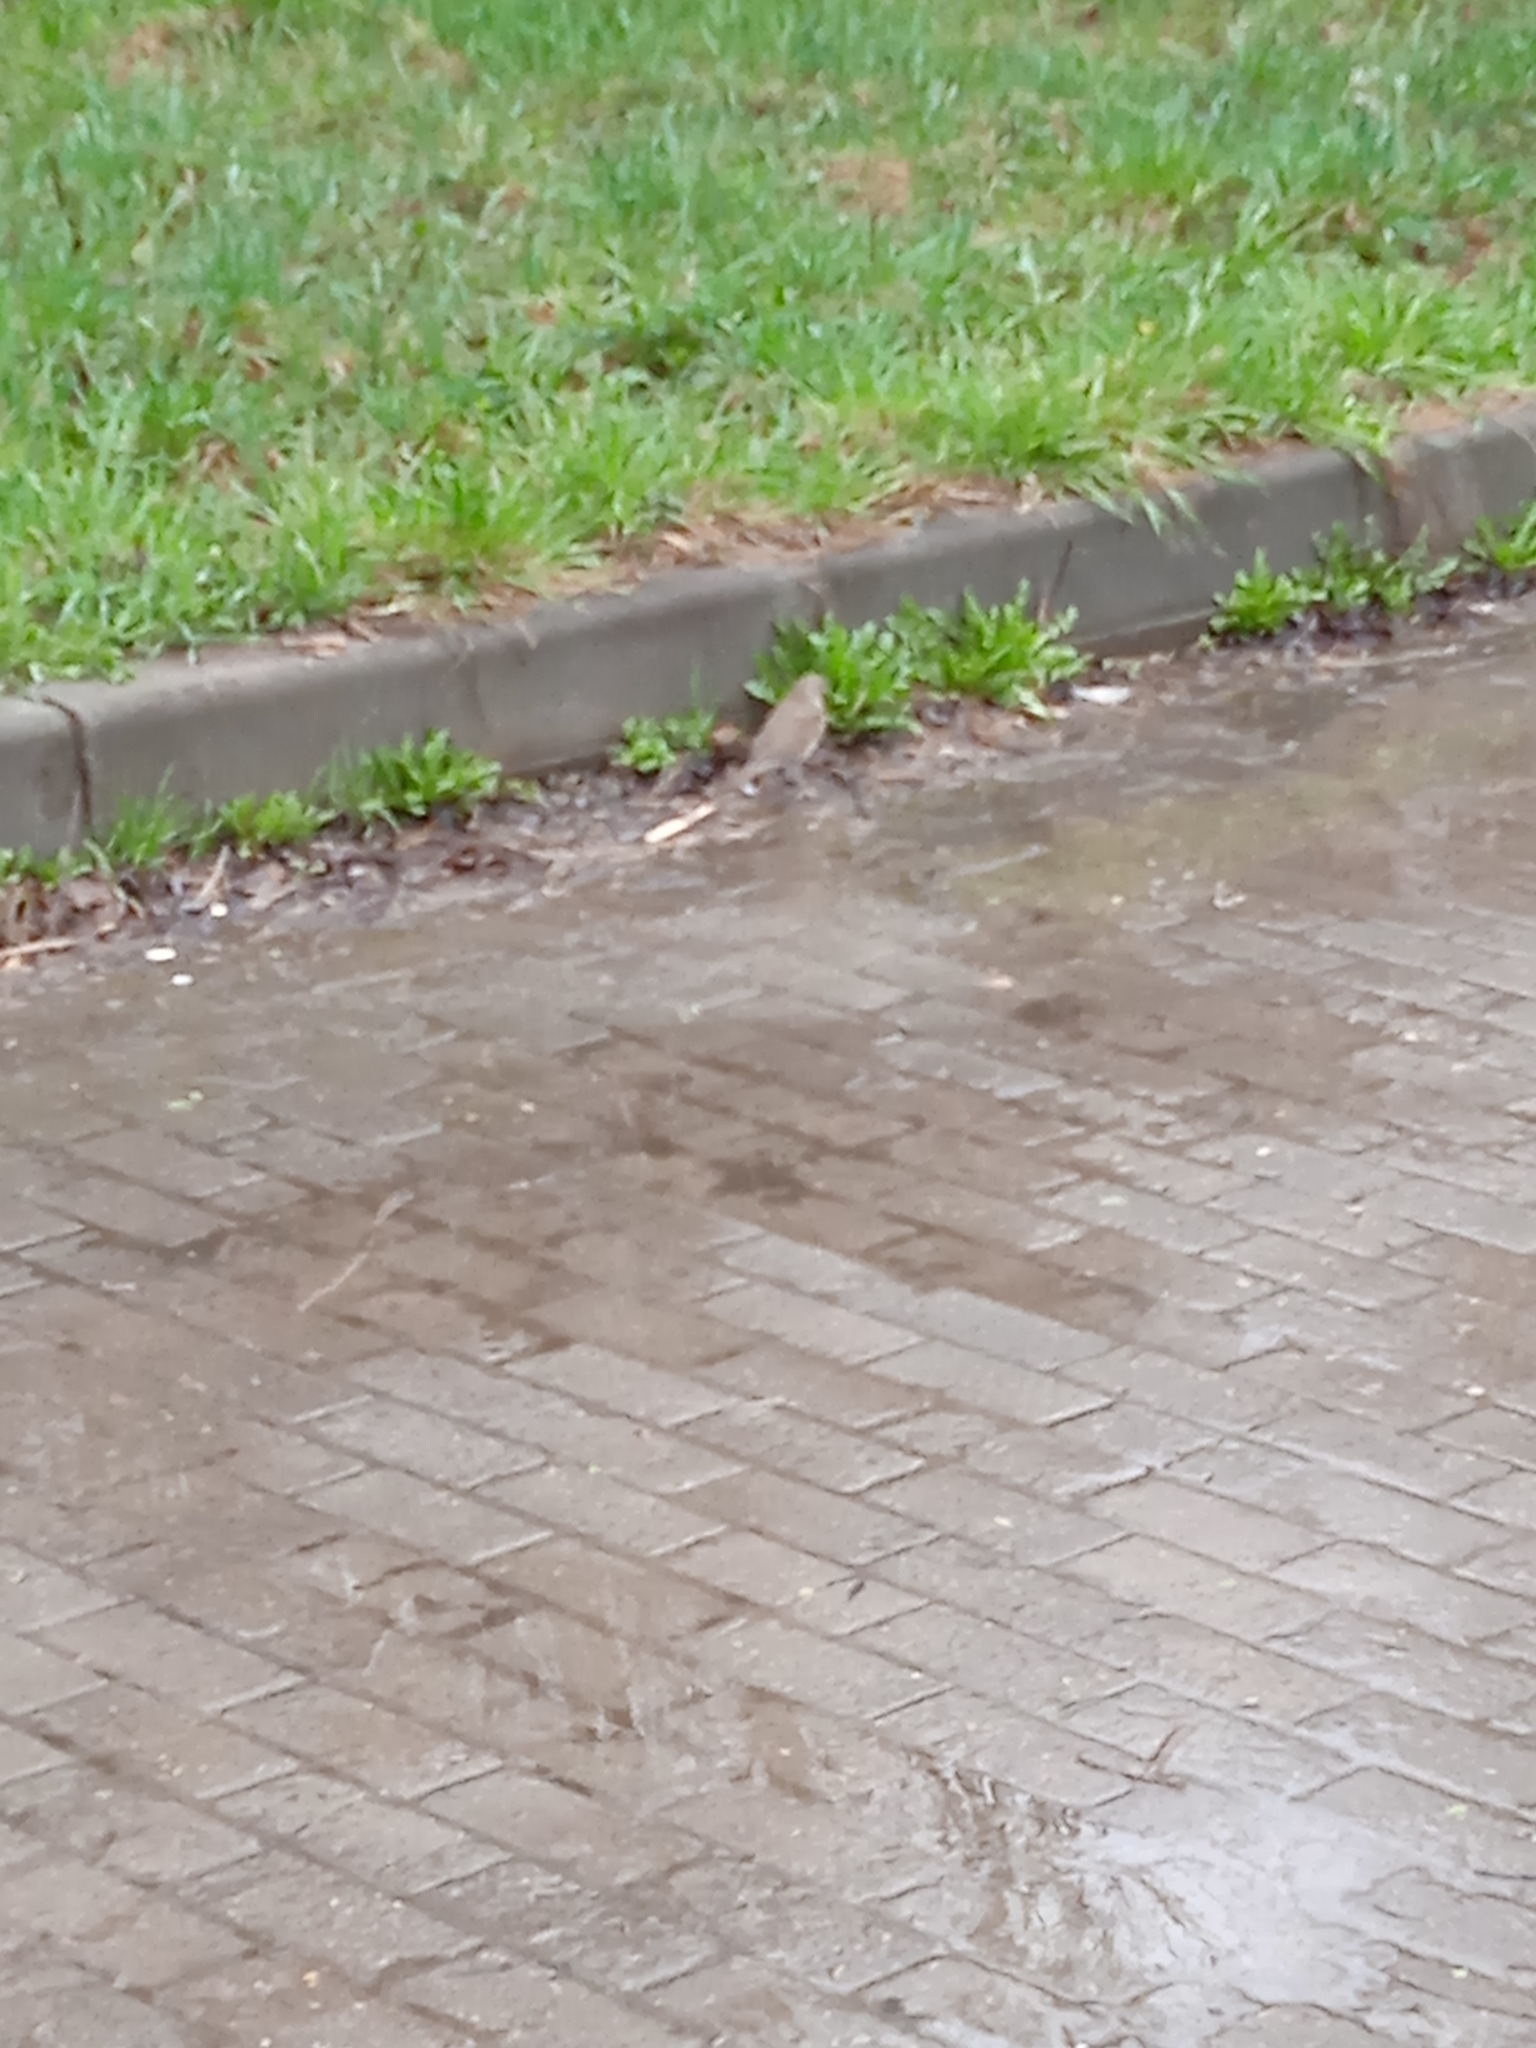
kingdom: Animalia
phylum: Chordata
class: Aves
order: Passeriformes
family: Turdidae
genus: Turdus
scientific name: Turdus philomelos
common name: Song thrush
